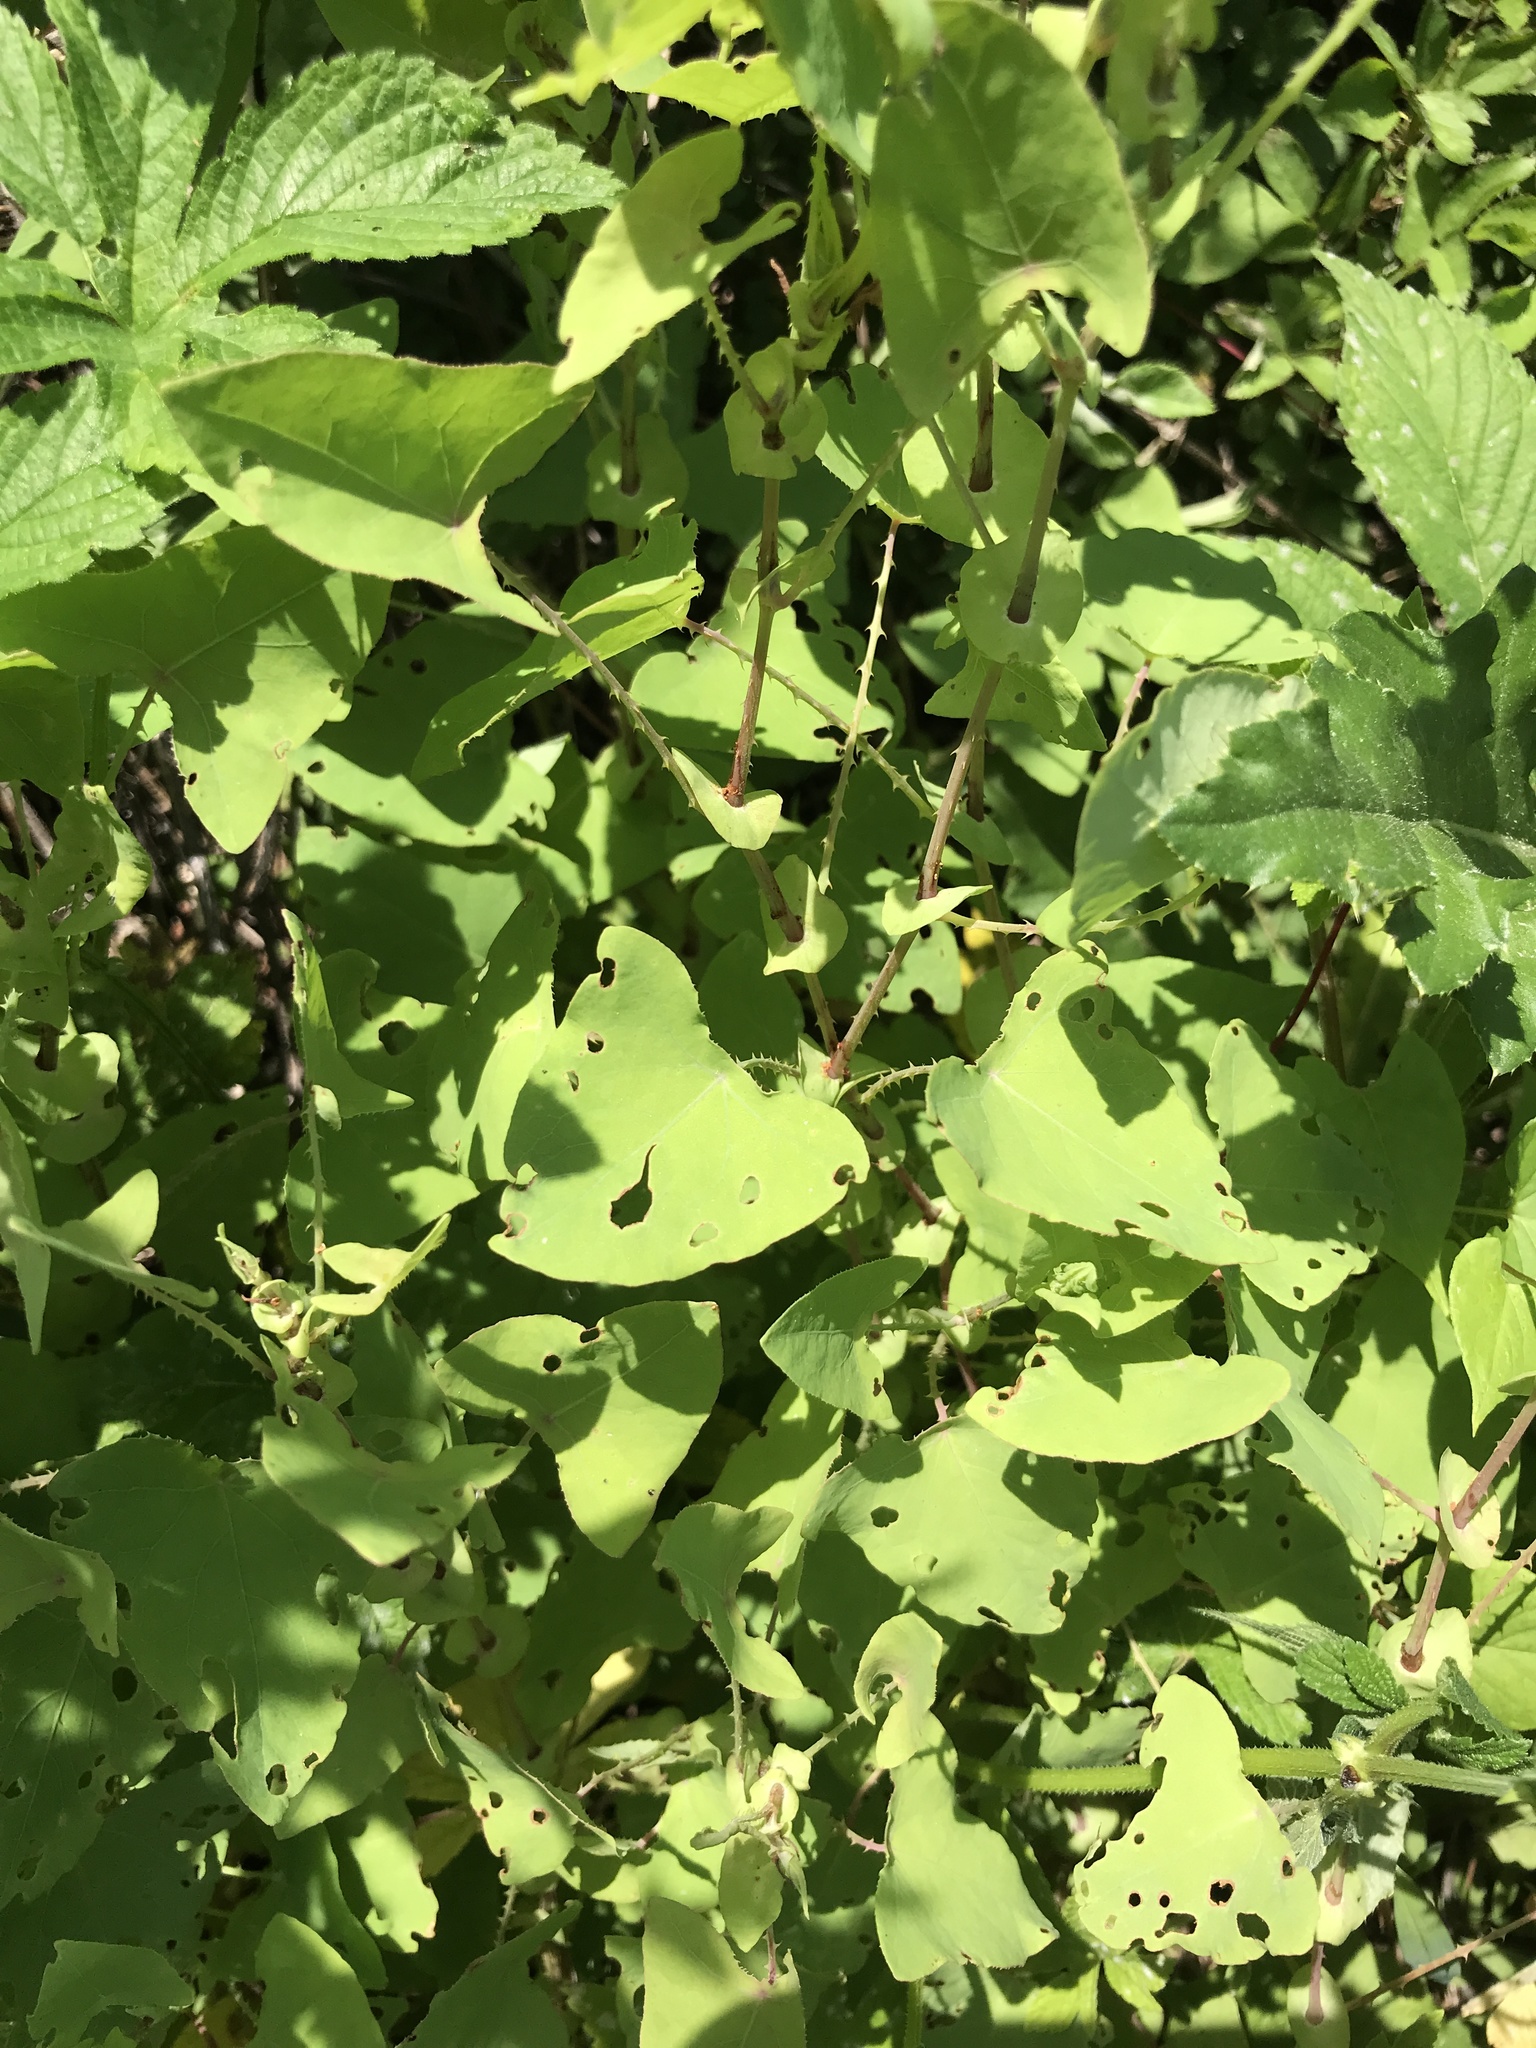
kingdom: Plantae
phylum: Tracheophyta
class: Magnoliopsida
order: Caryophyllales
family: Polygonaceae
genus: Persicaria
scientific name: Persicaria perfoliata
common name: Asiatic tearthumb
